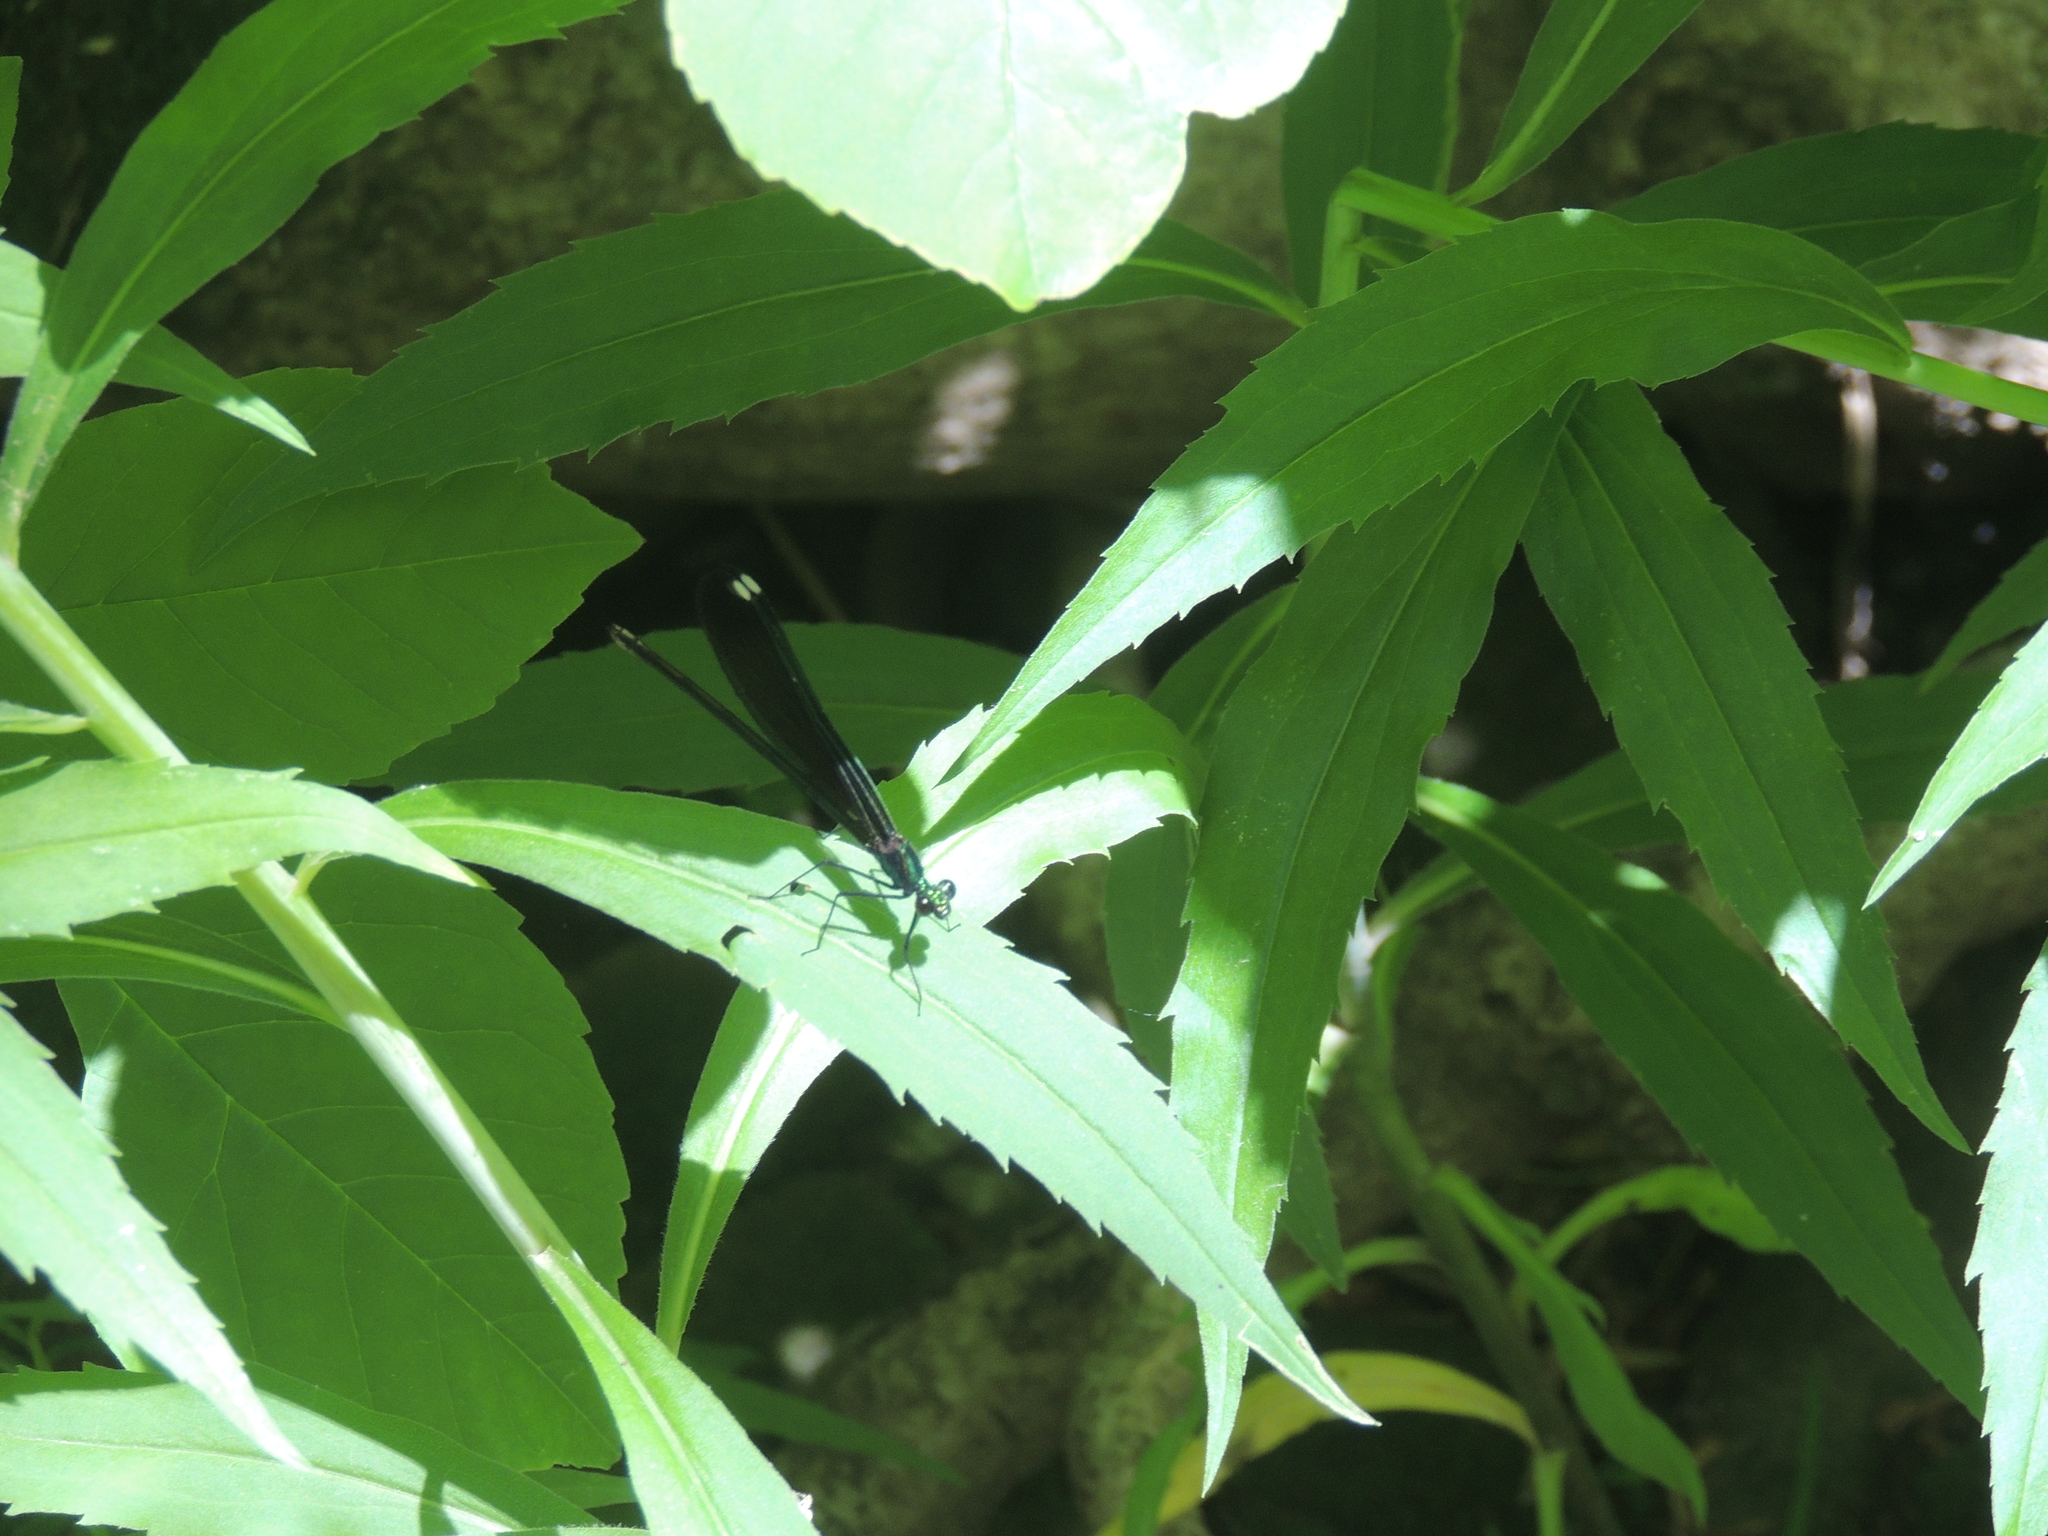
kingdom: Animalia
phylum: Arthropoda
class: Insecta
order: Odonata
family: Calopterygidae
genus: Calopteryx
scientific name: Calopteryx maculata
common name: Ebony jewelwing
